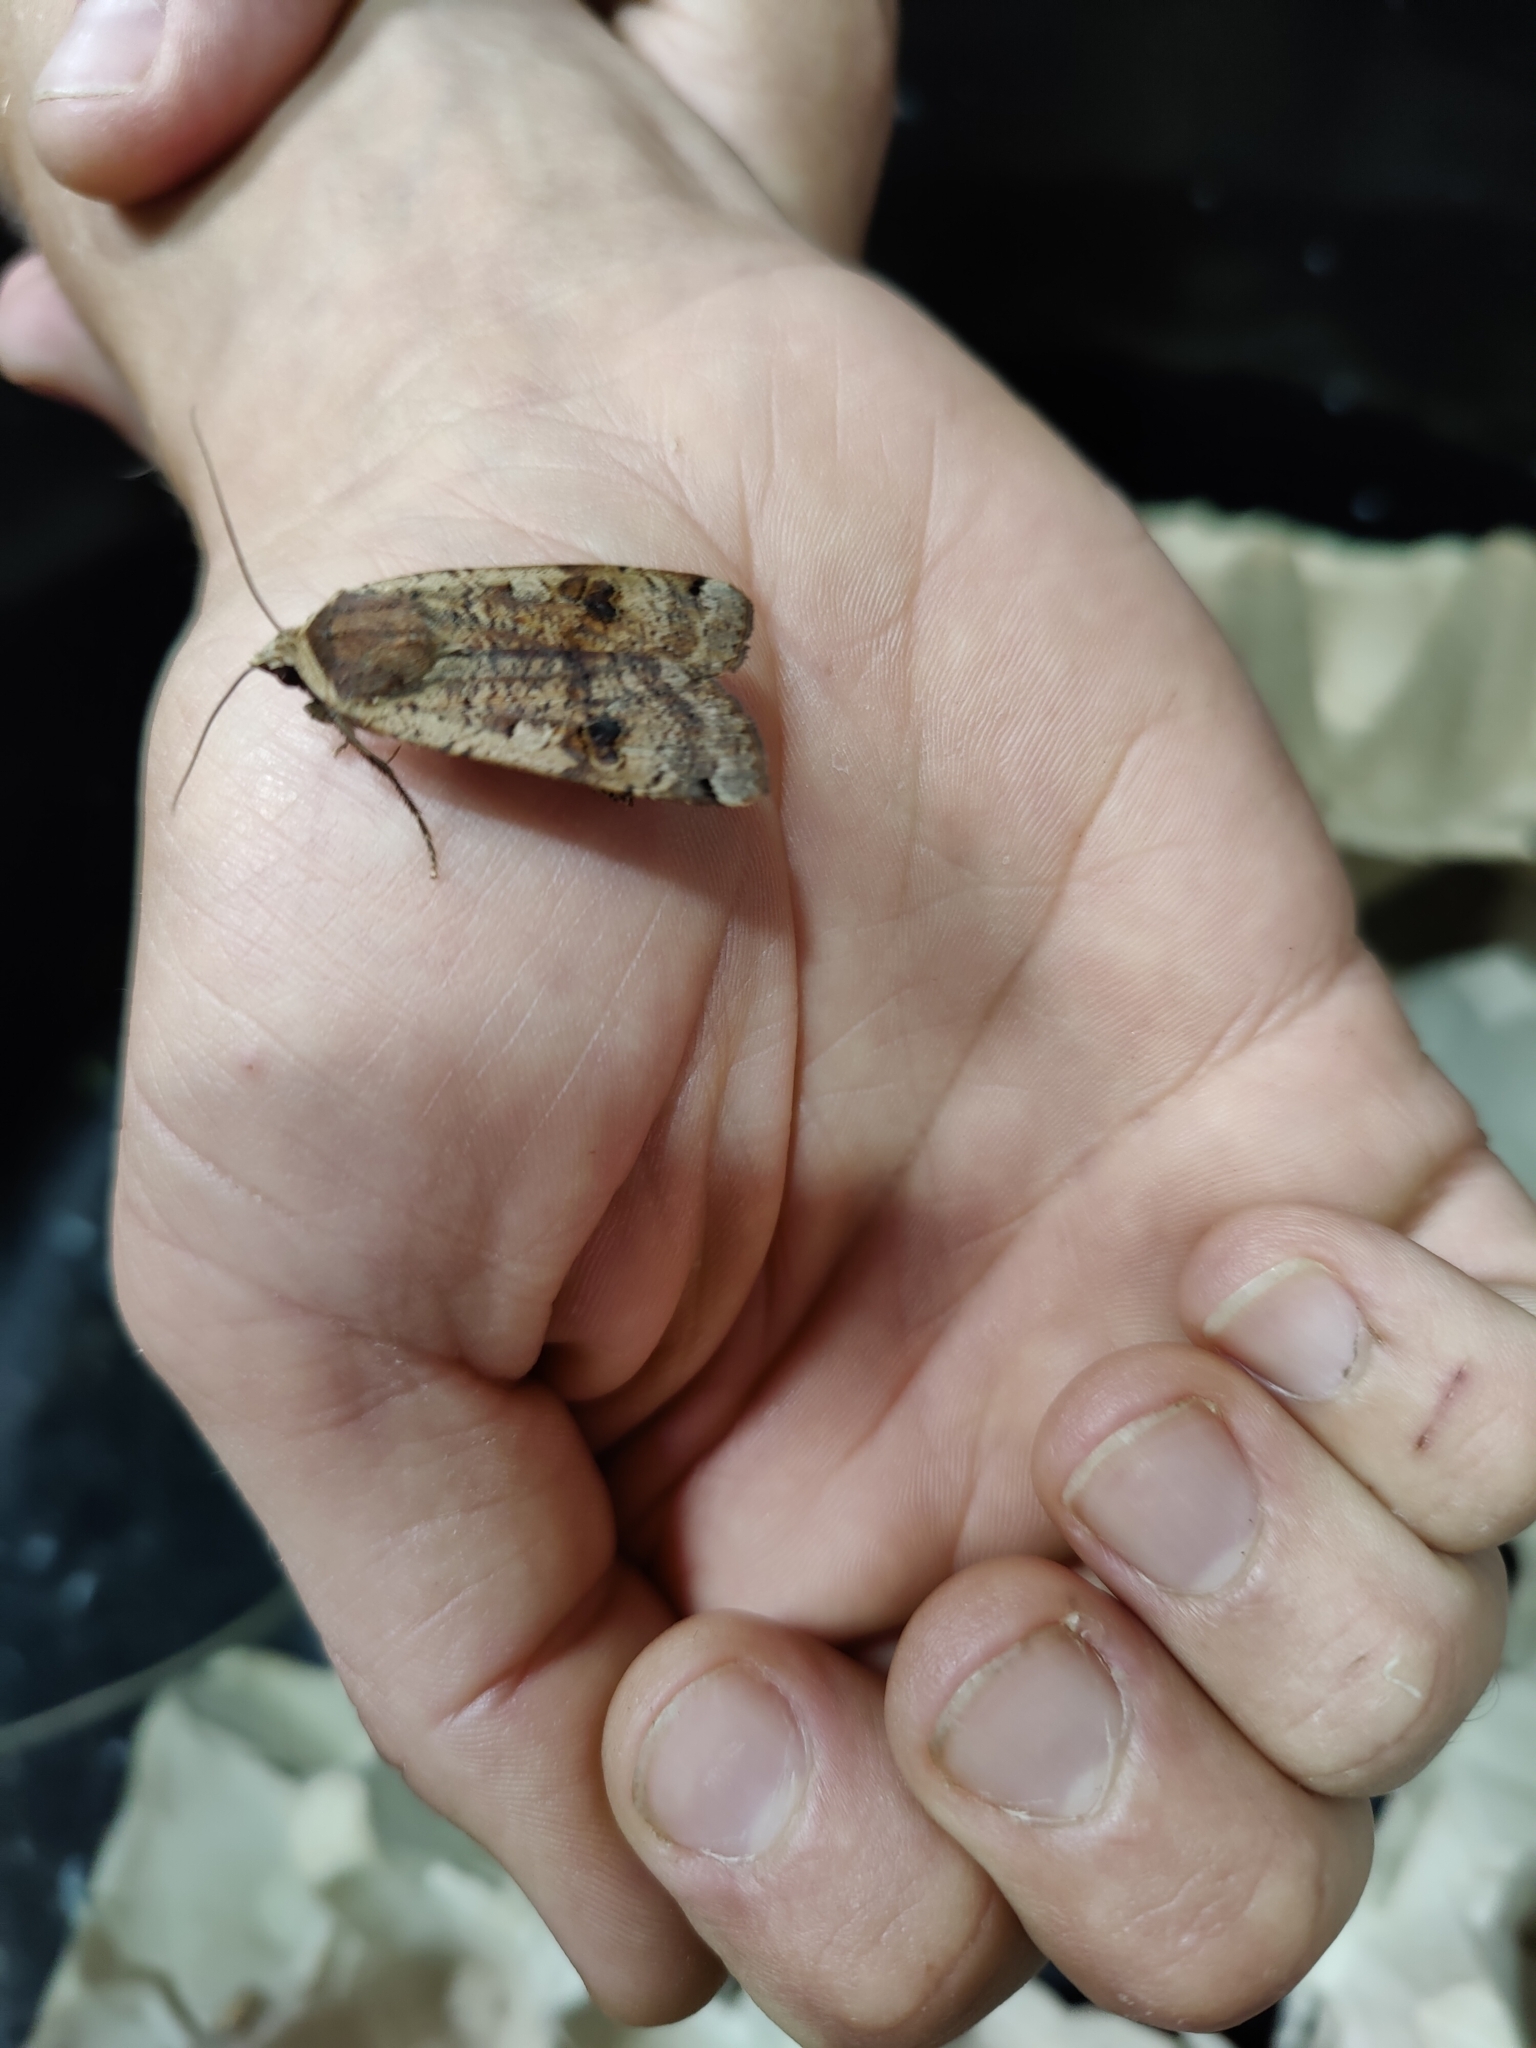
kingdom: Animalia
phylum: Arthropoda
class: Insecta
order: Lepidoptera
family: Noctuidae
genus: Noctua
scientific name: Noctua pronuba
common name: Large yellow underwing
